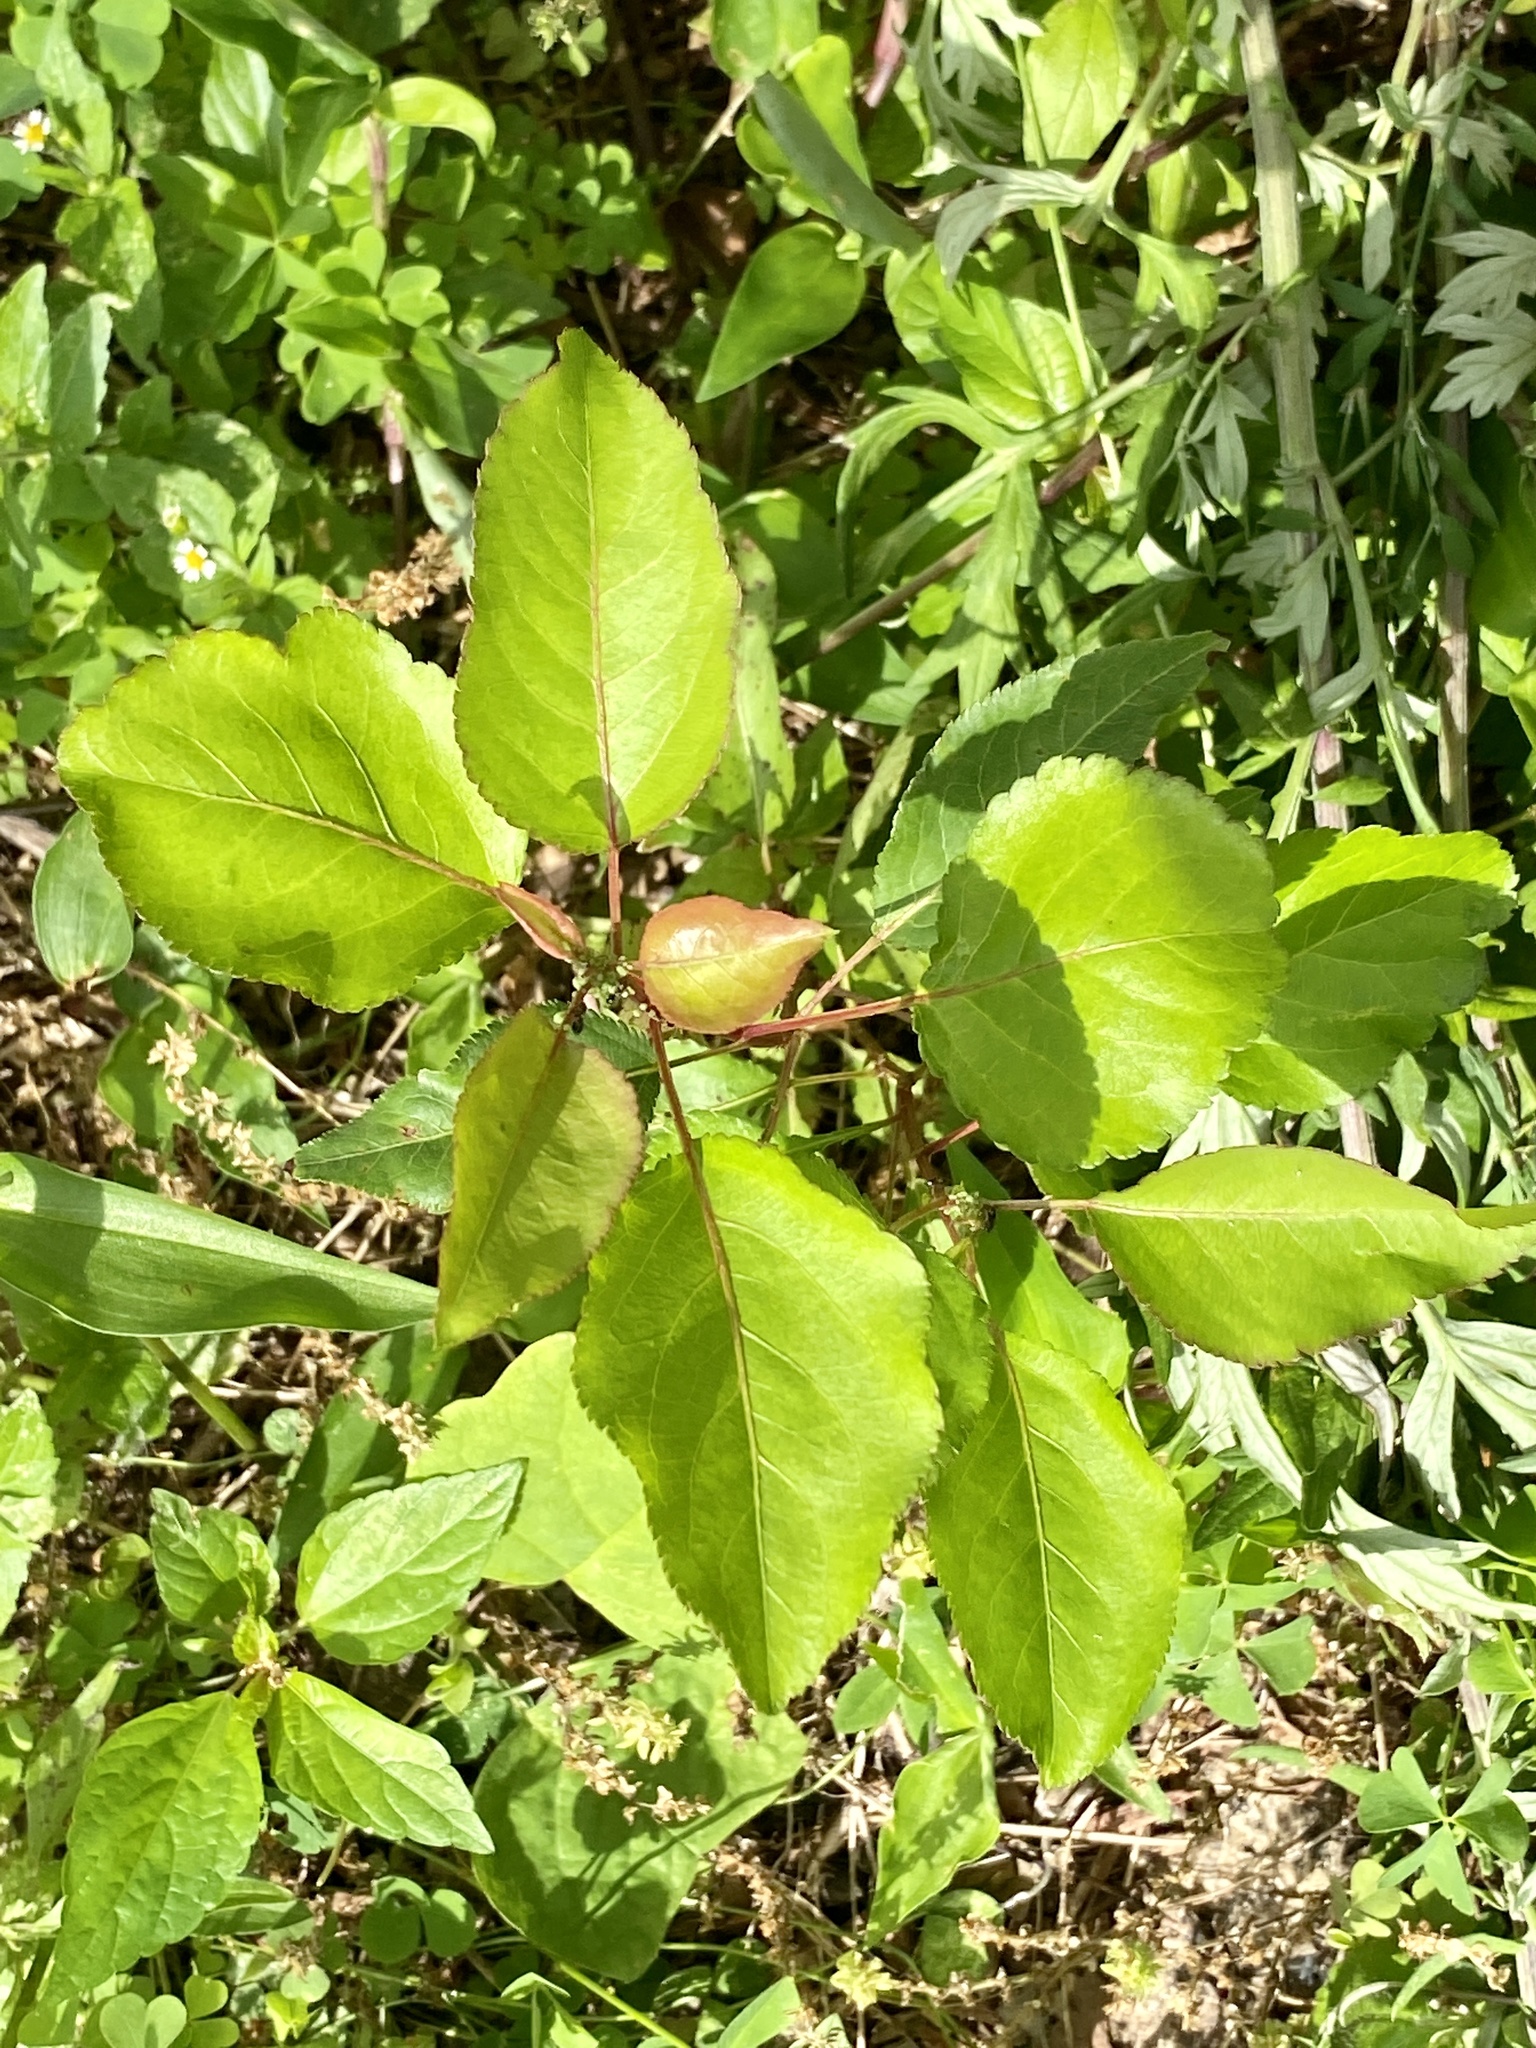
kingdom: Plantae
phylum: Tracheophyta
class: Magnoliopsida
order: Rosales
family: Rosaceae
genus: Pyrus
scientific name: Pyrus calleryana
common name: Callery pear
